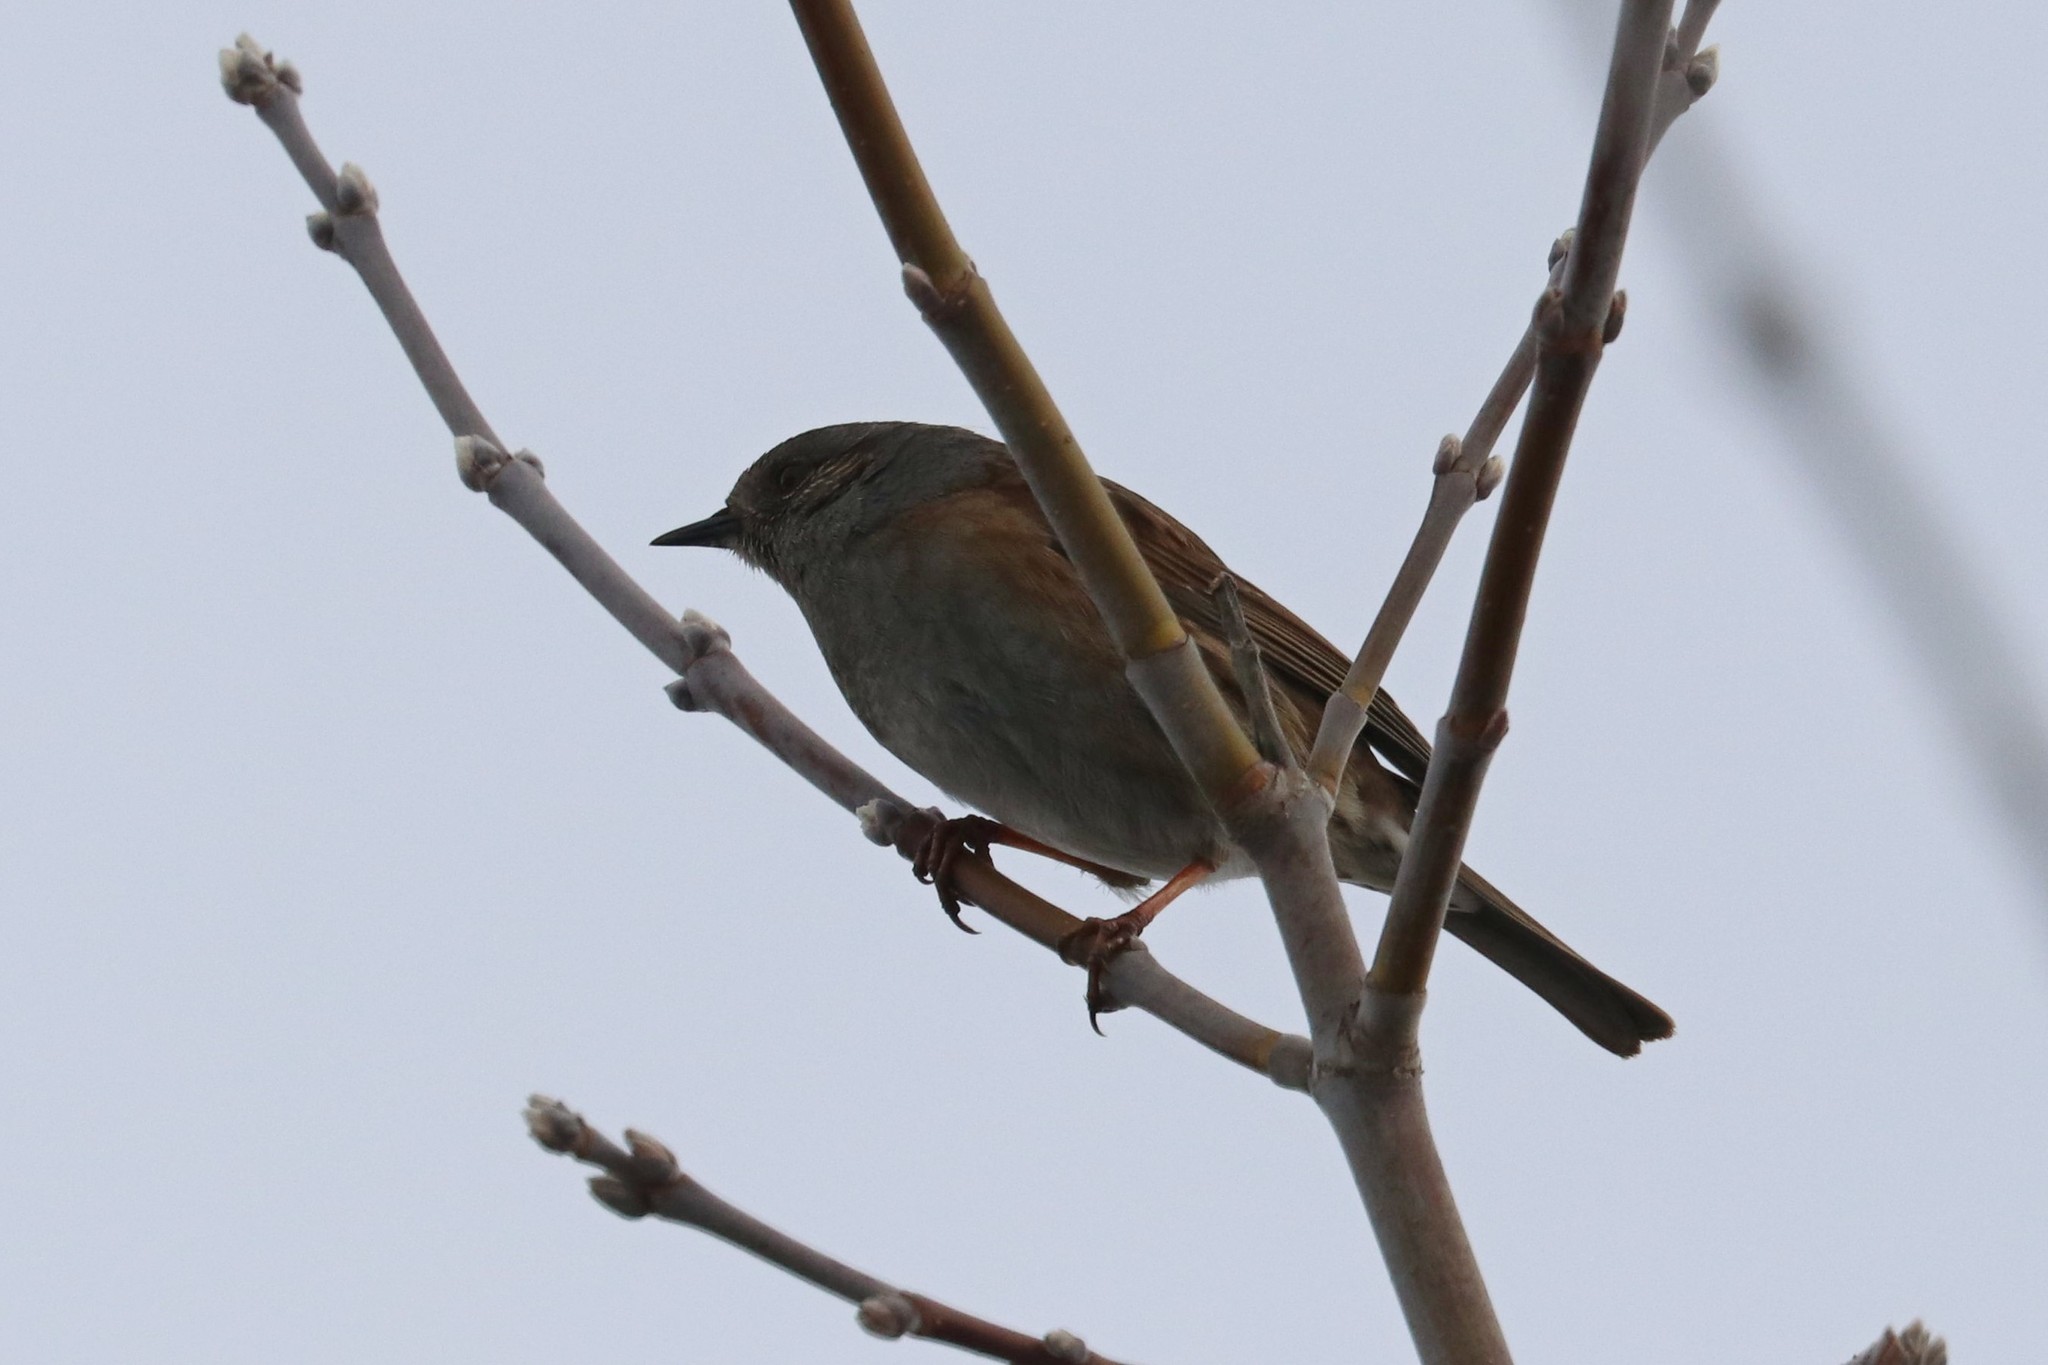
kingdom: Animalia
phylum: Chordata
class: Aves
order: Passeriformes
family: Prunellidae
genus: Prunella
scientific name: Prunella modularis
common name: Dunnock
